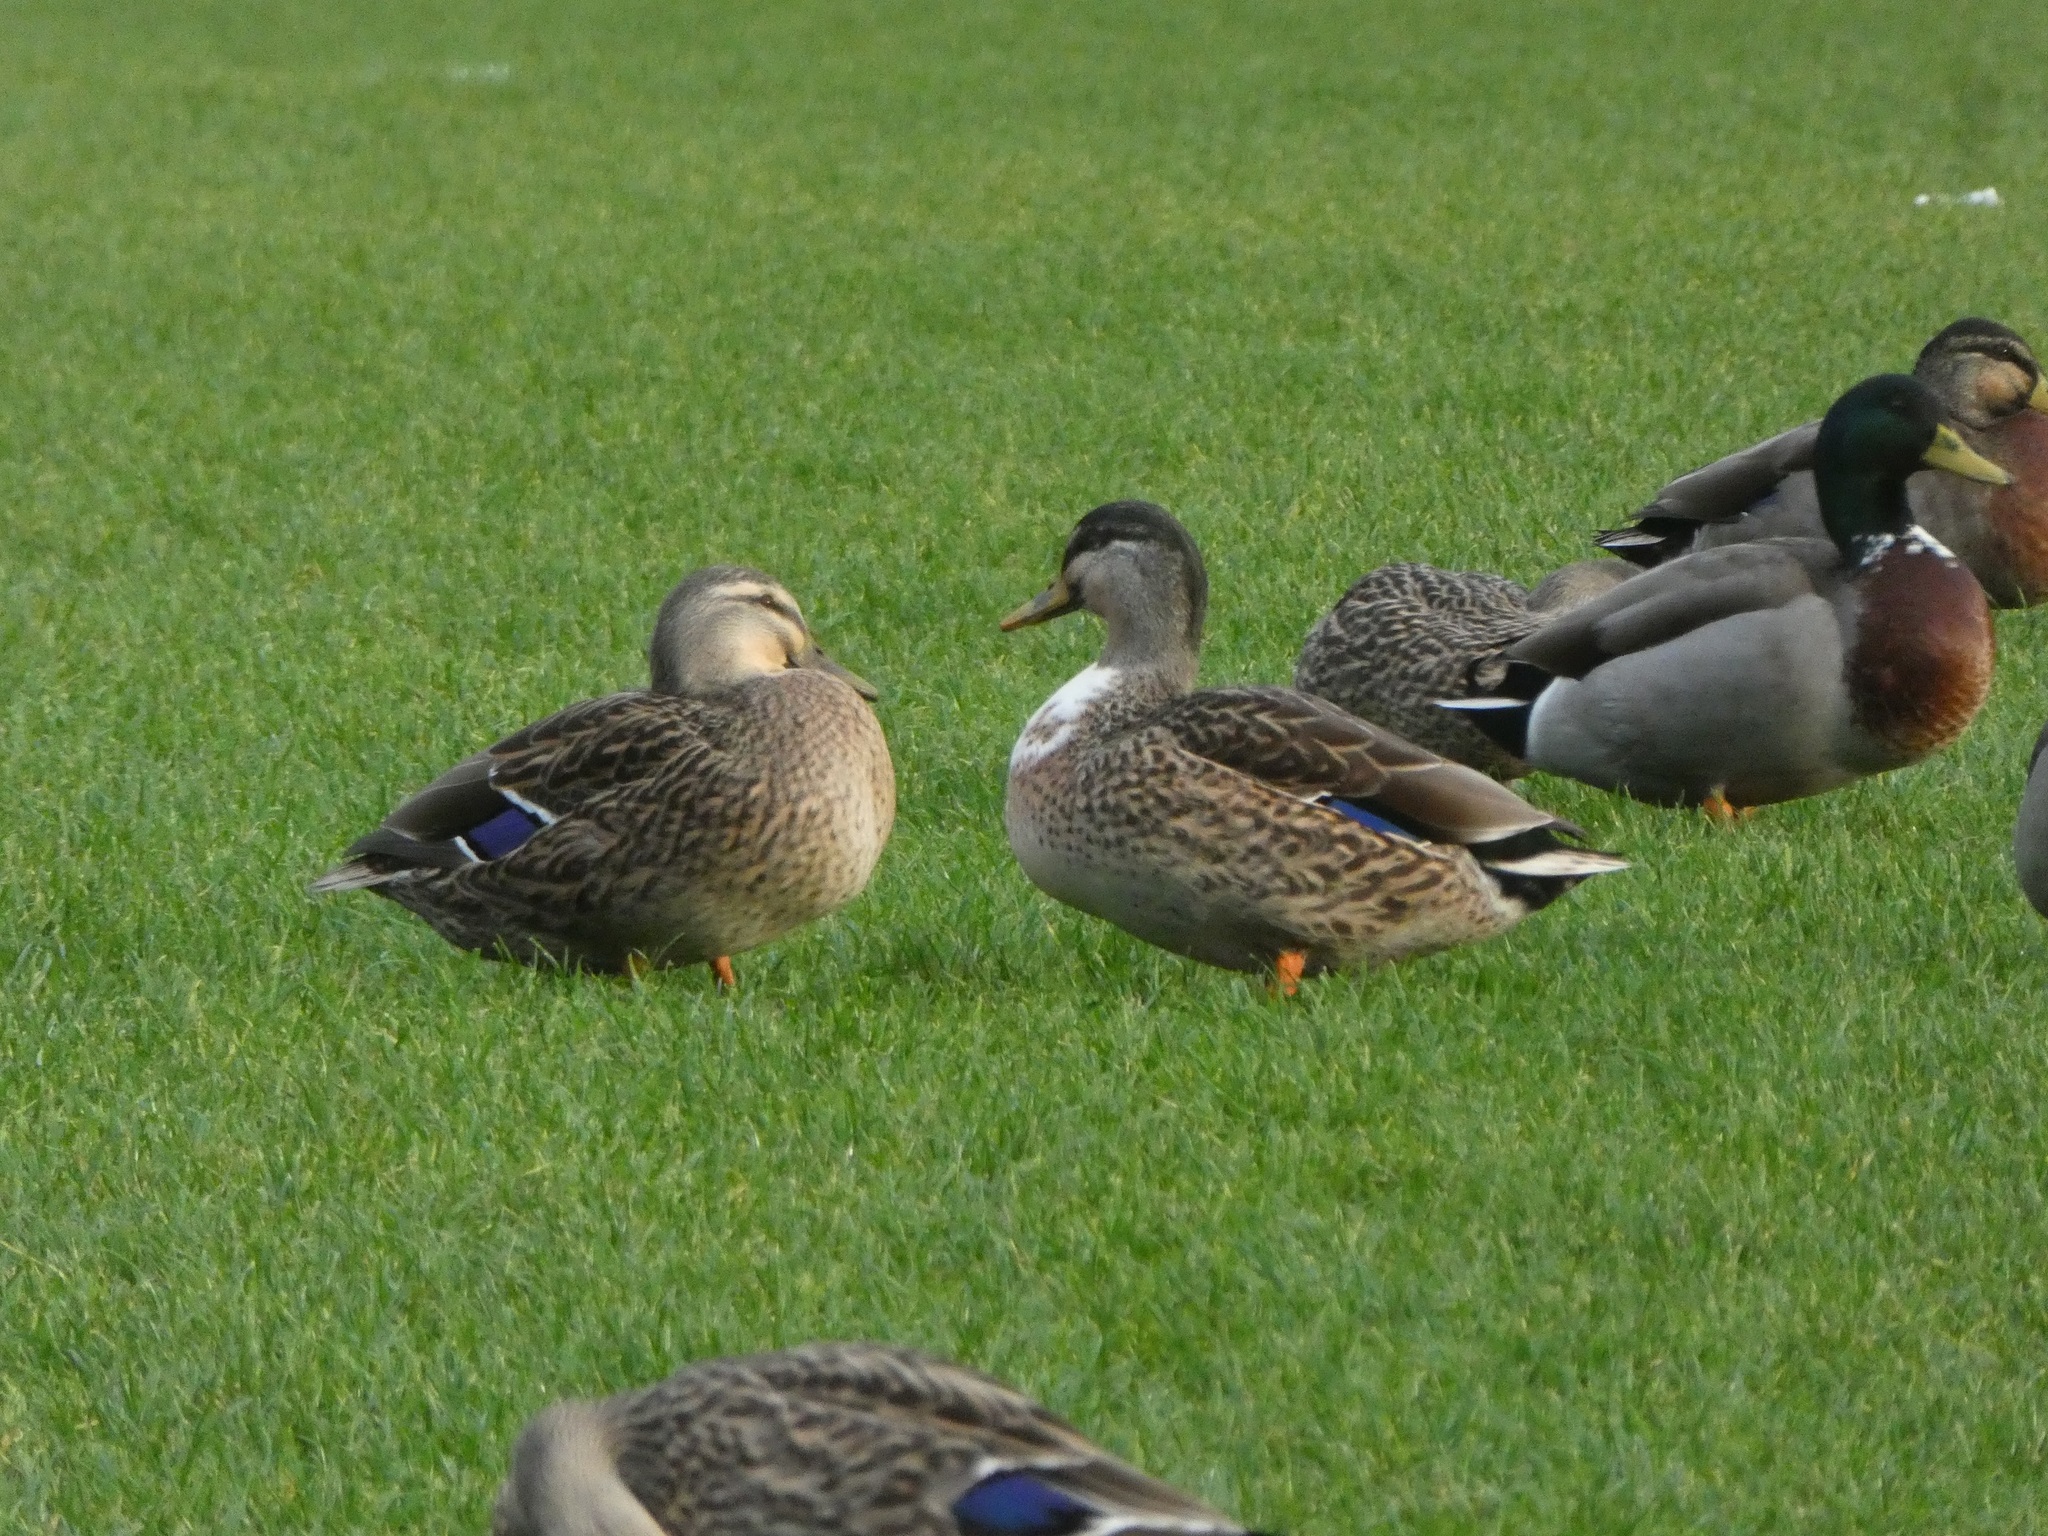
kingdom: Animalia
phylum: Chordata
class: Aves
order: Anseriformes
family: Anatidae
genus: Anas
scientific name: Anas platyrhynchos
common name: Mallard
